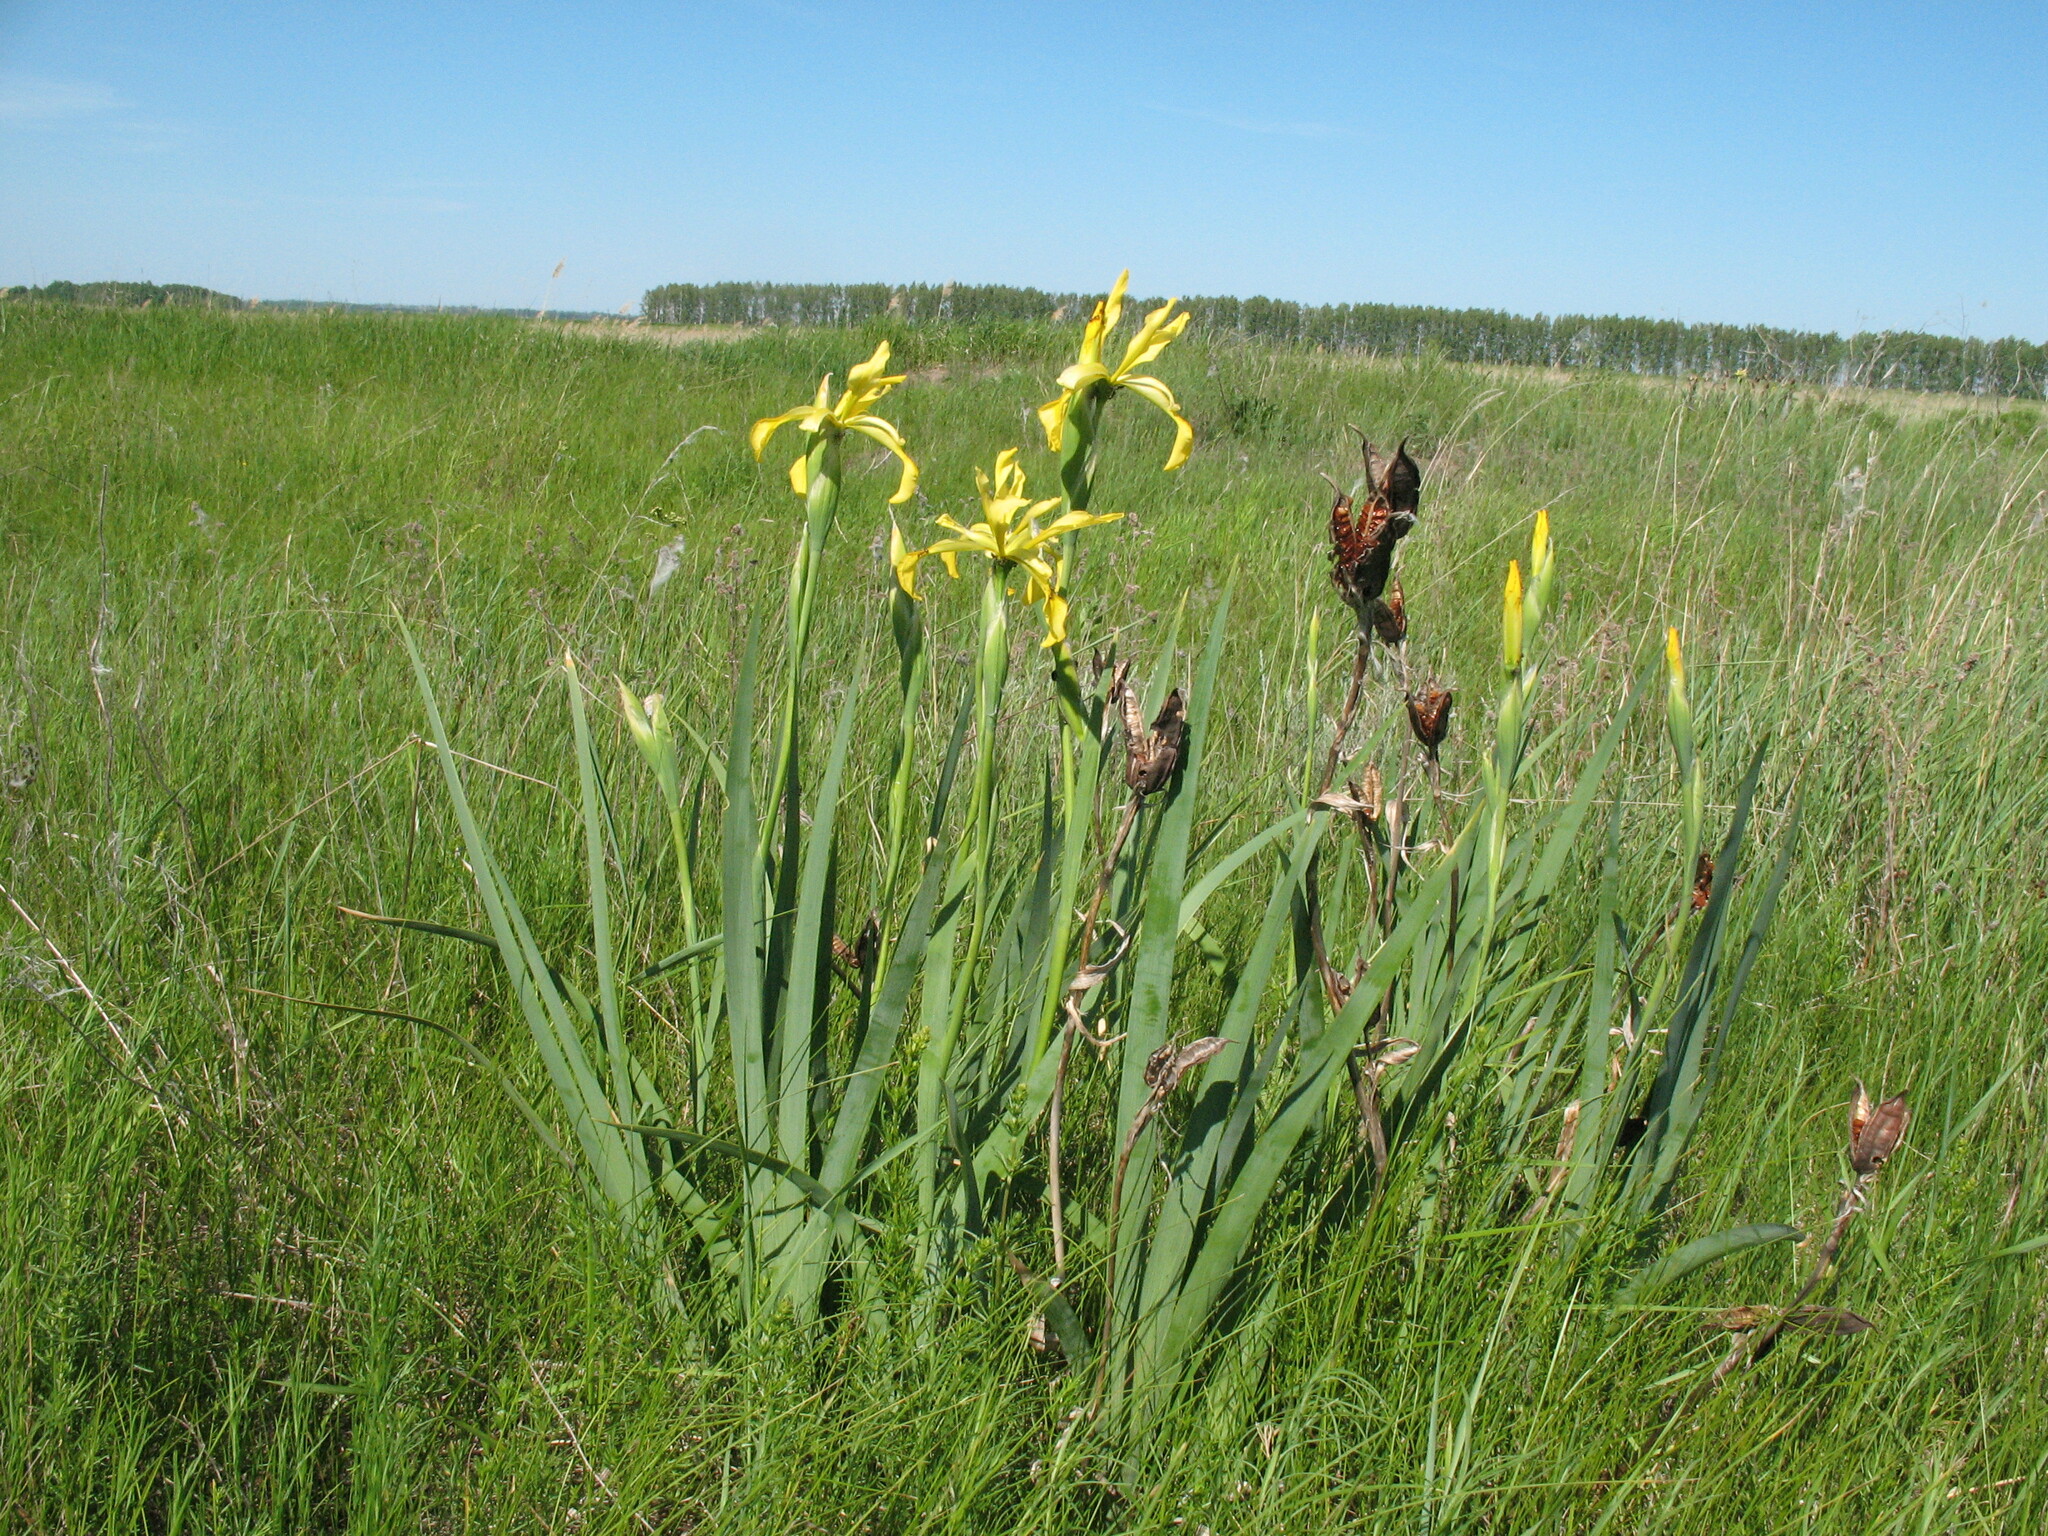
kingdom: Plantae
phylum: Tracheophyta
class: Liliopsida
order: Asparagales
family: Iridaceae
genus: Iris
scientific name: Iris halophila
